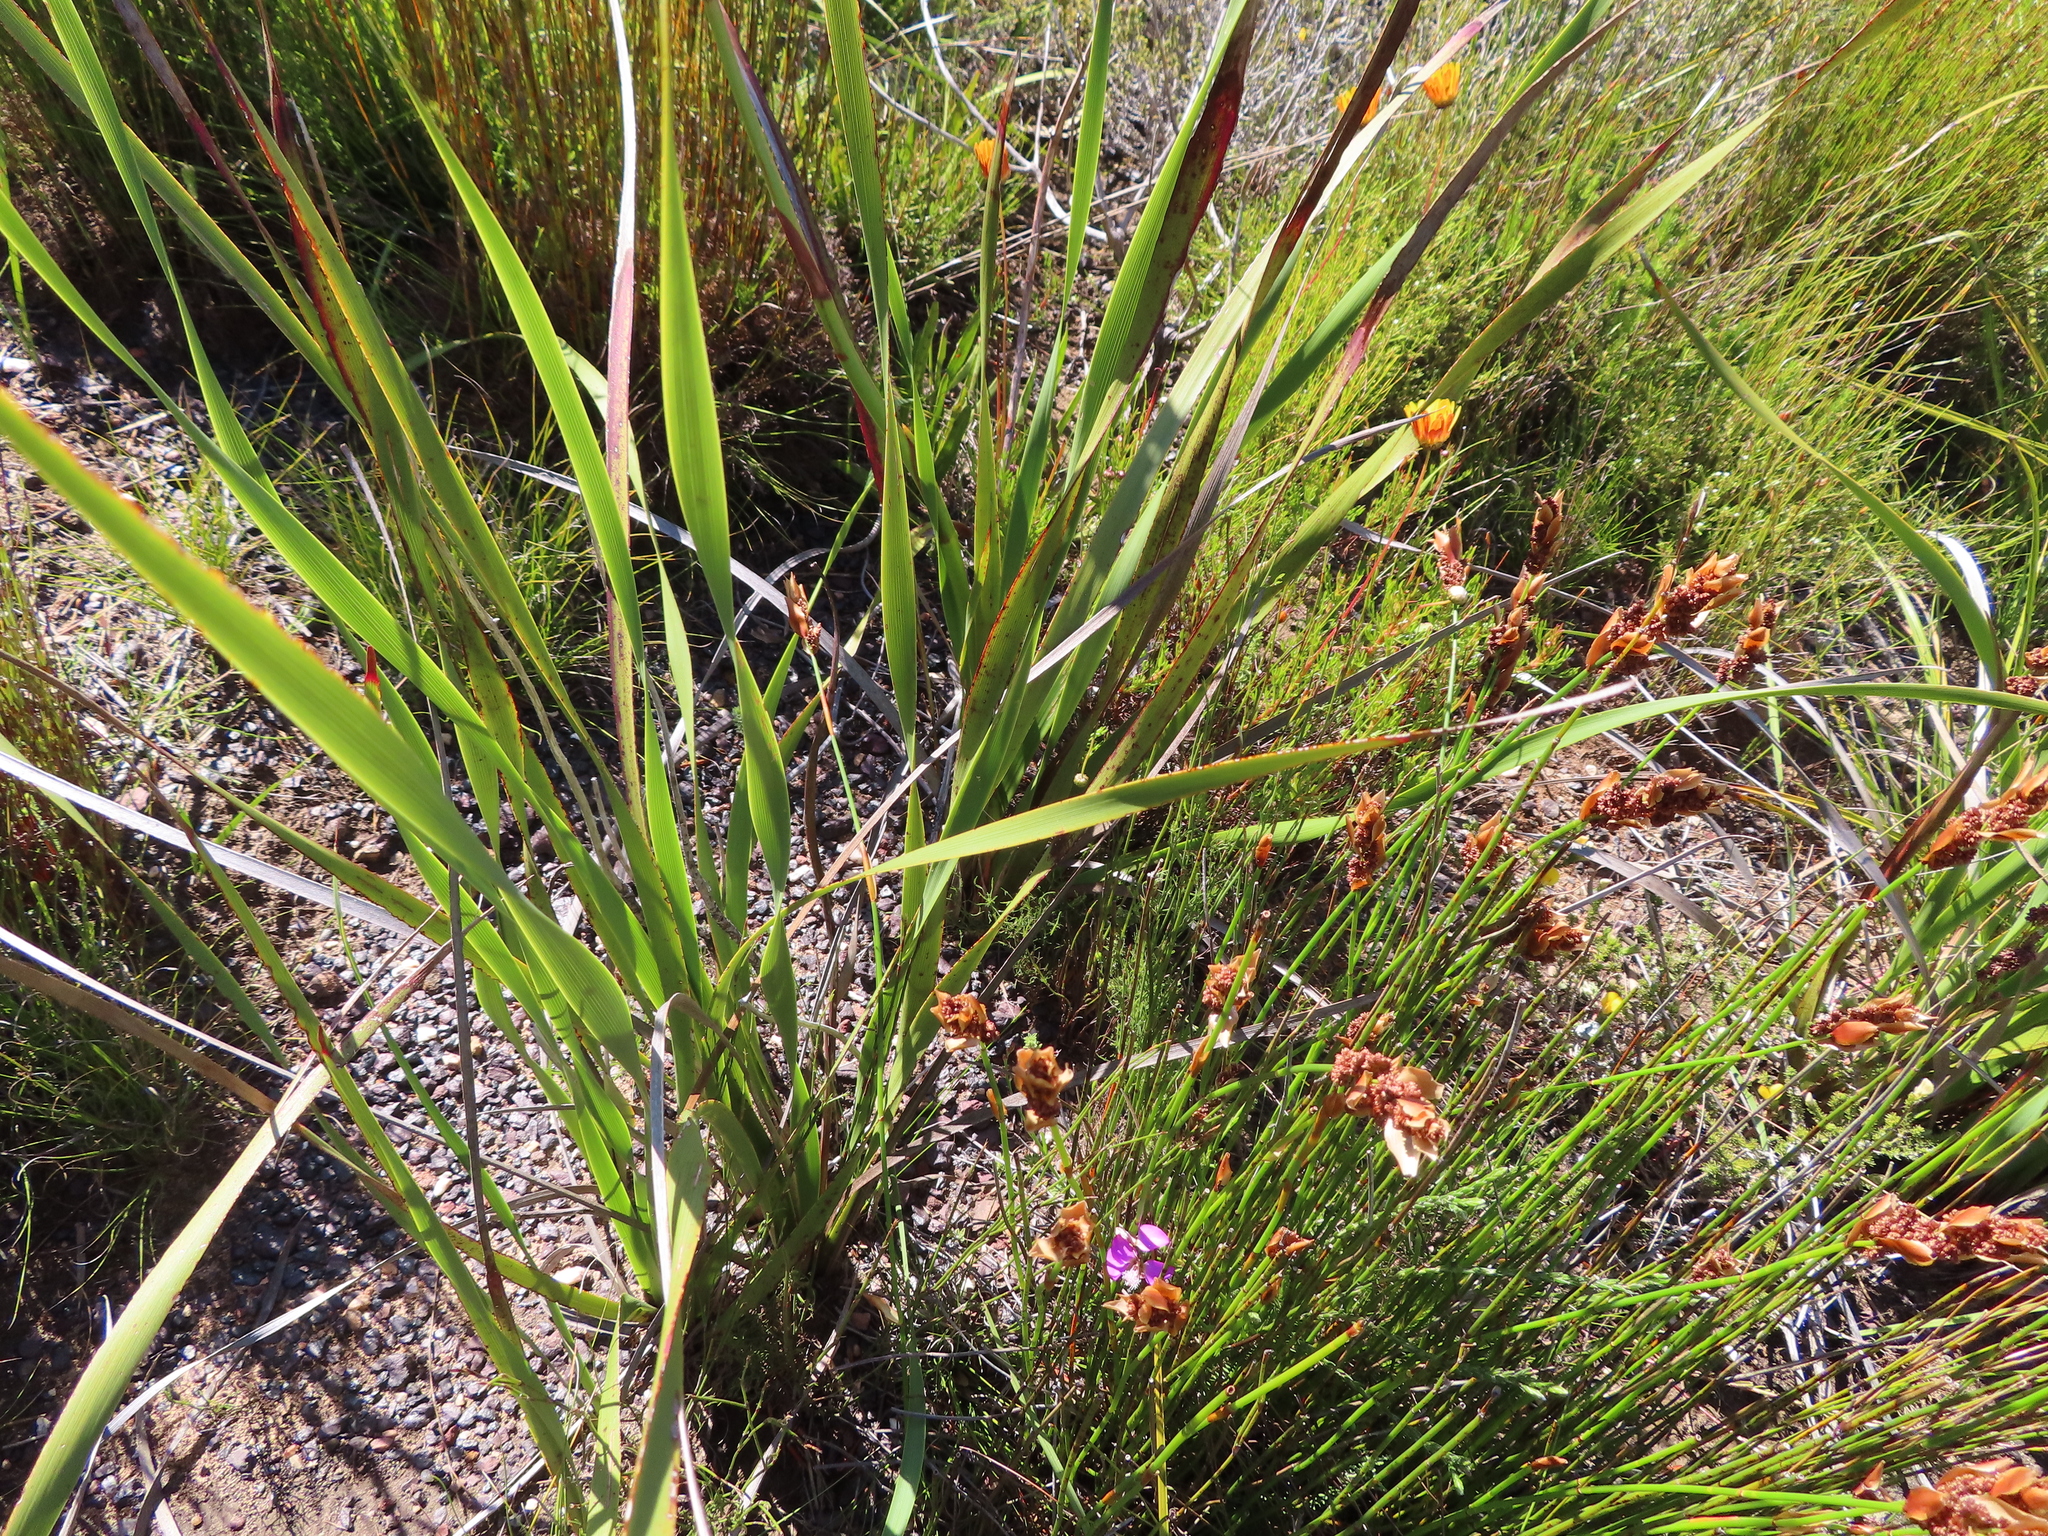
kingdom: Plantae
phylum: Tracheophyta
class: Liliopsida
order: Asparagales
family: Iridaceae
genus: Pillansia
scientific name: Pillansia templemannii
